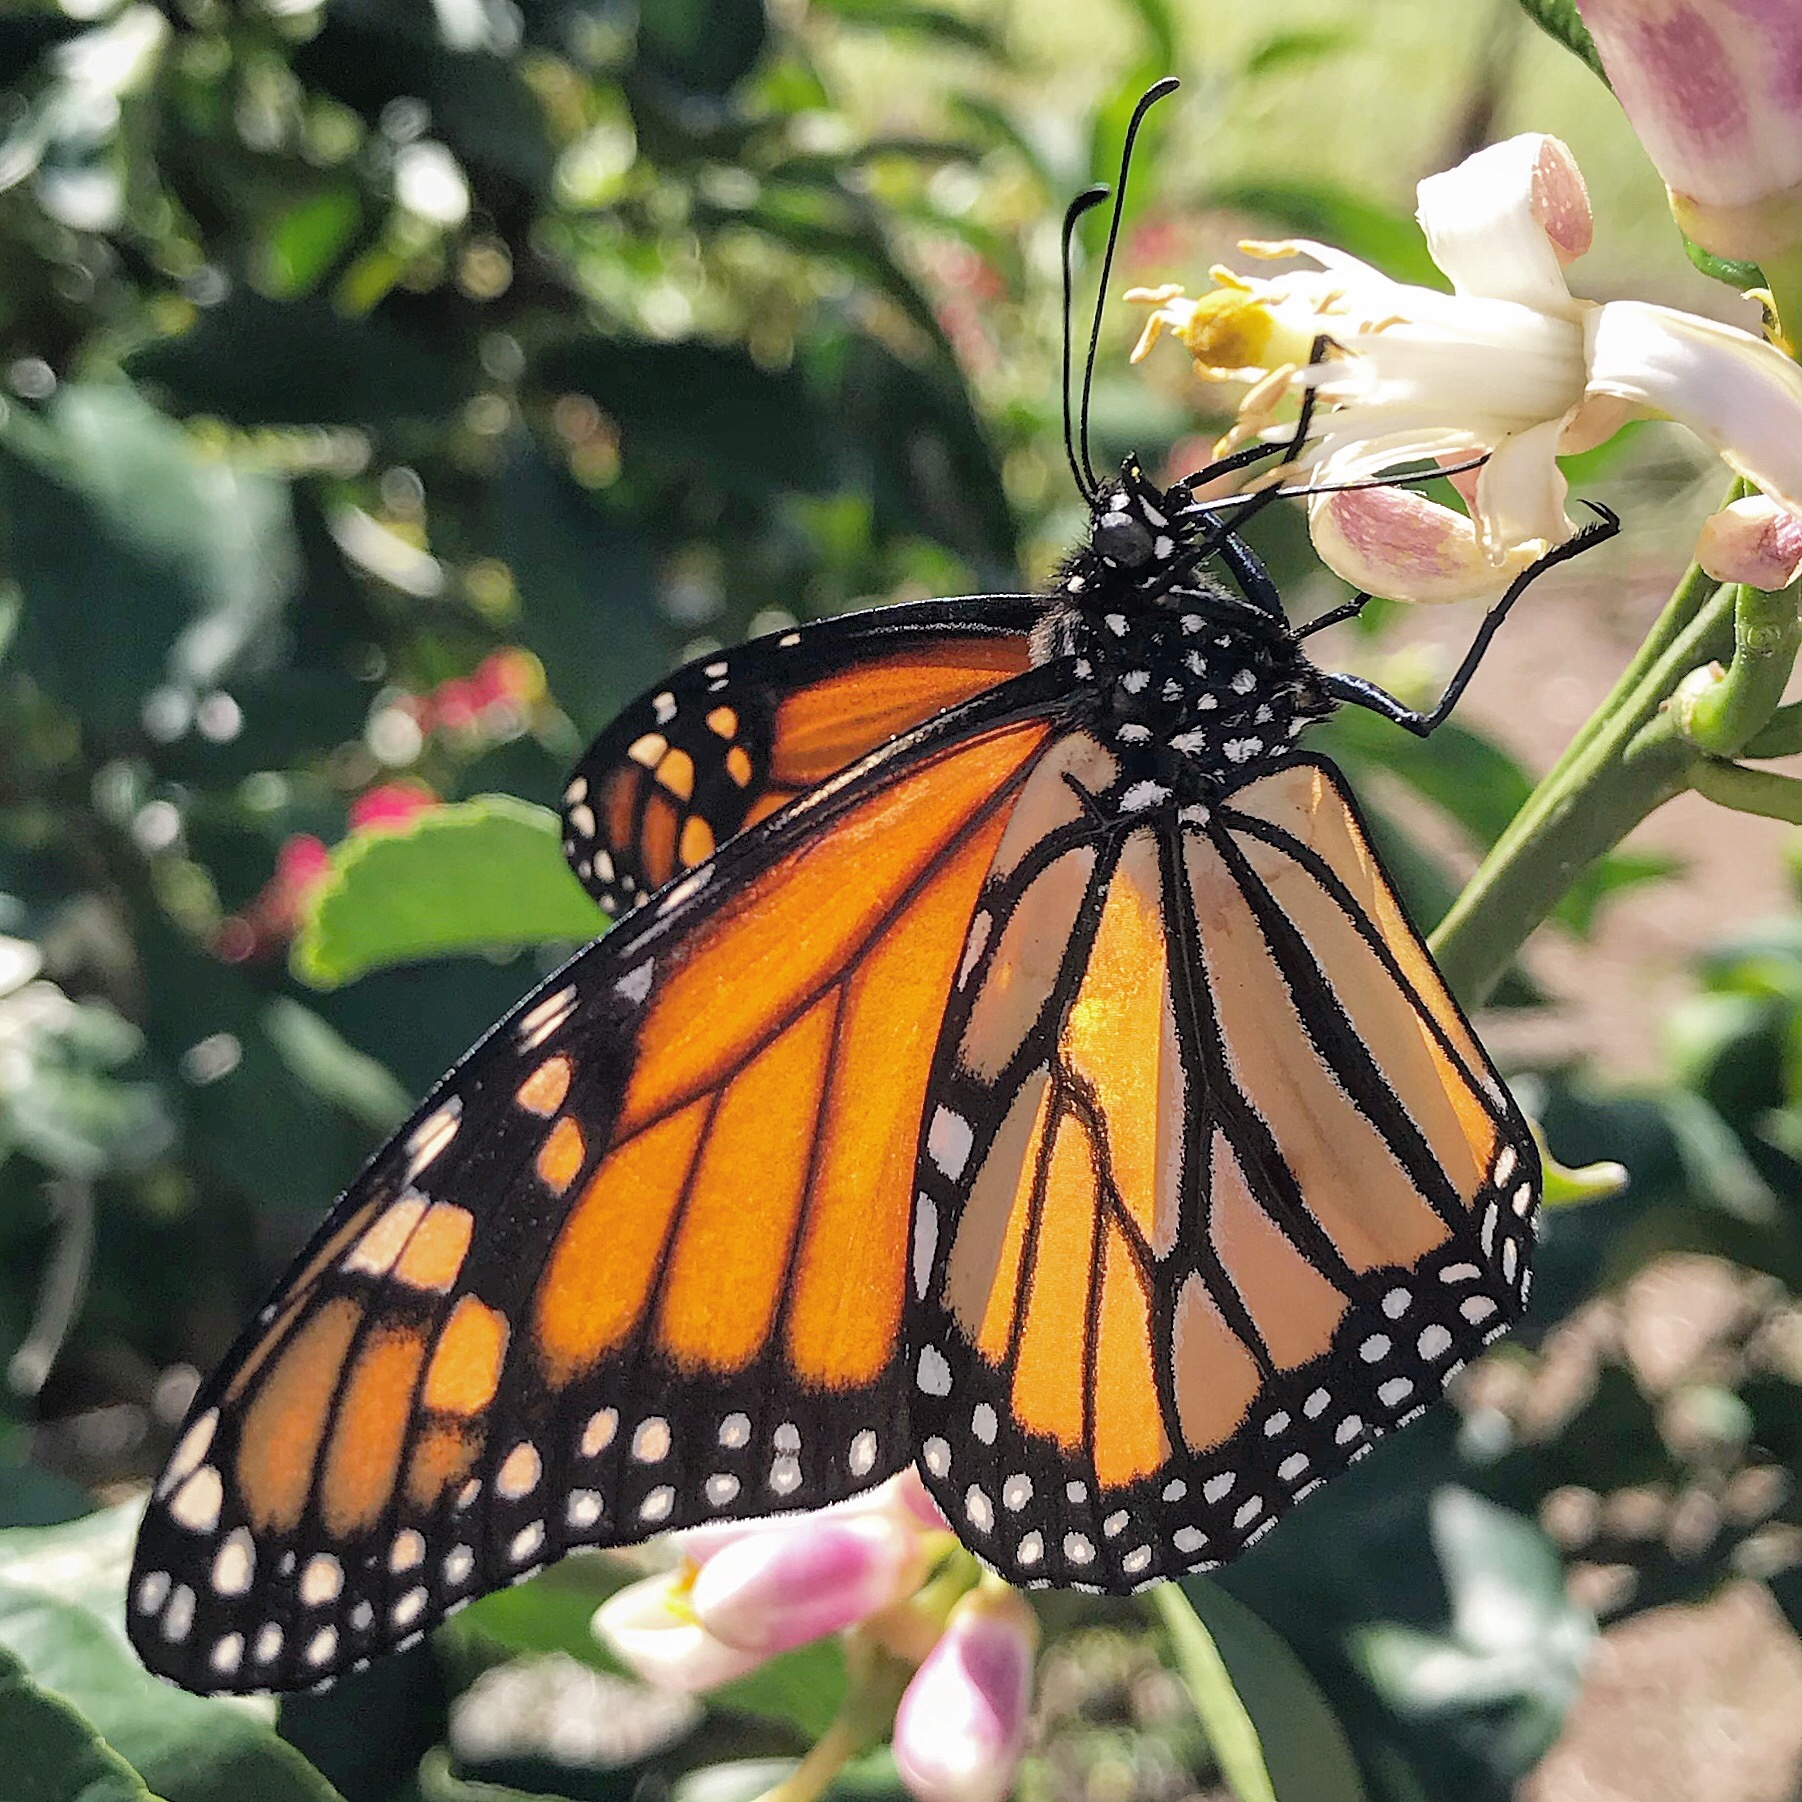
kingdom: Animalia
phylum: Arthropoda
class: Insecta
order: Lepidoptera
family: Nymphalidae
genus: Danaus
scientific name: Danaus plexippus
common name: Monarch
